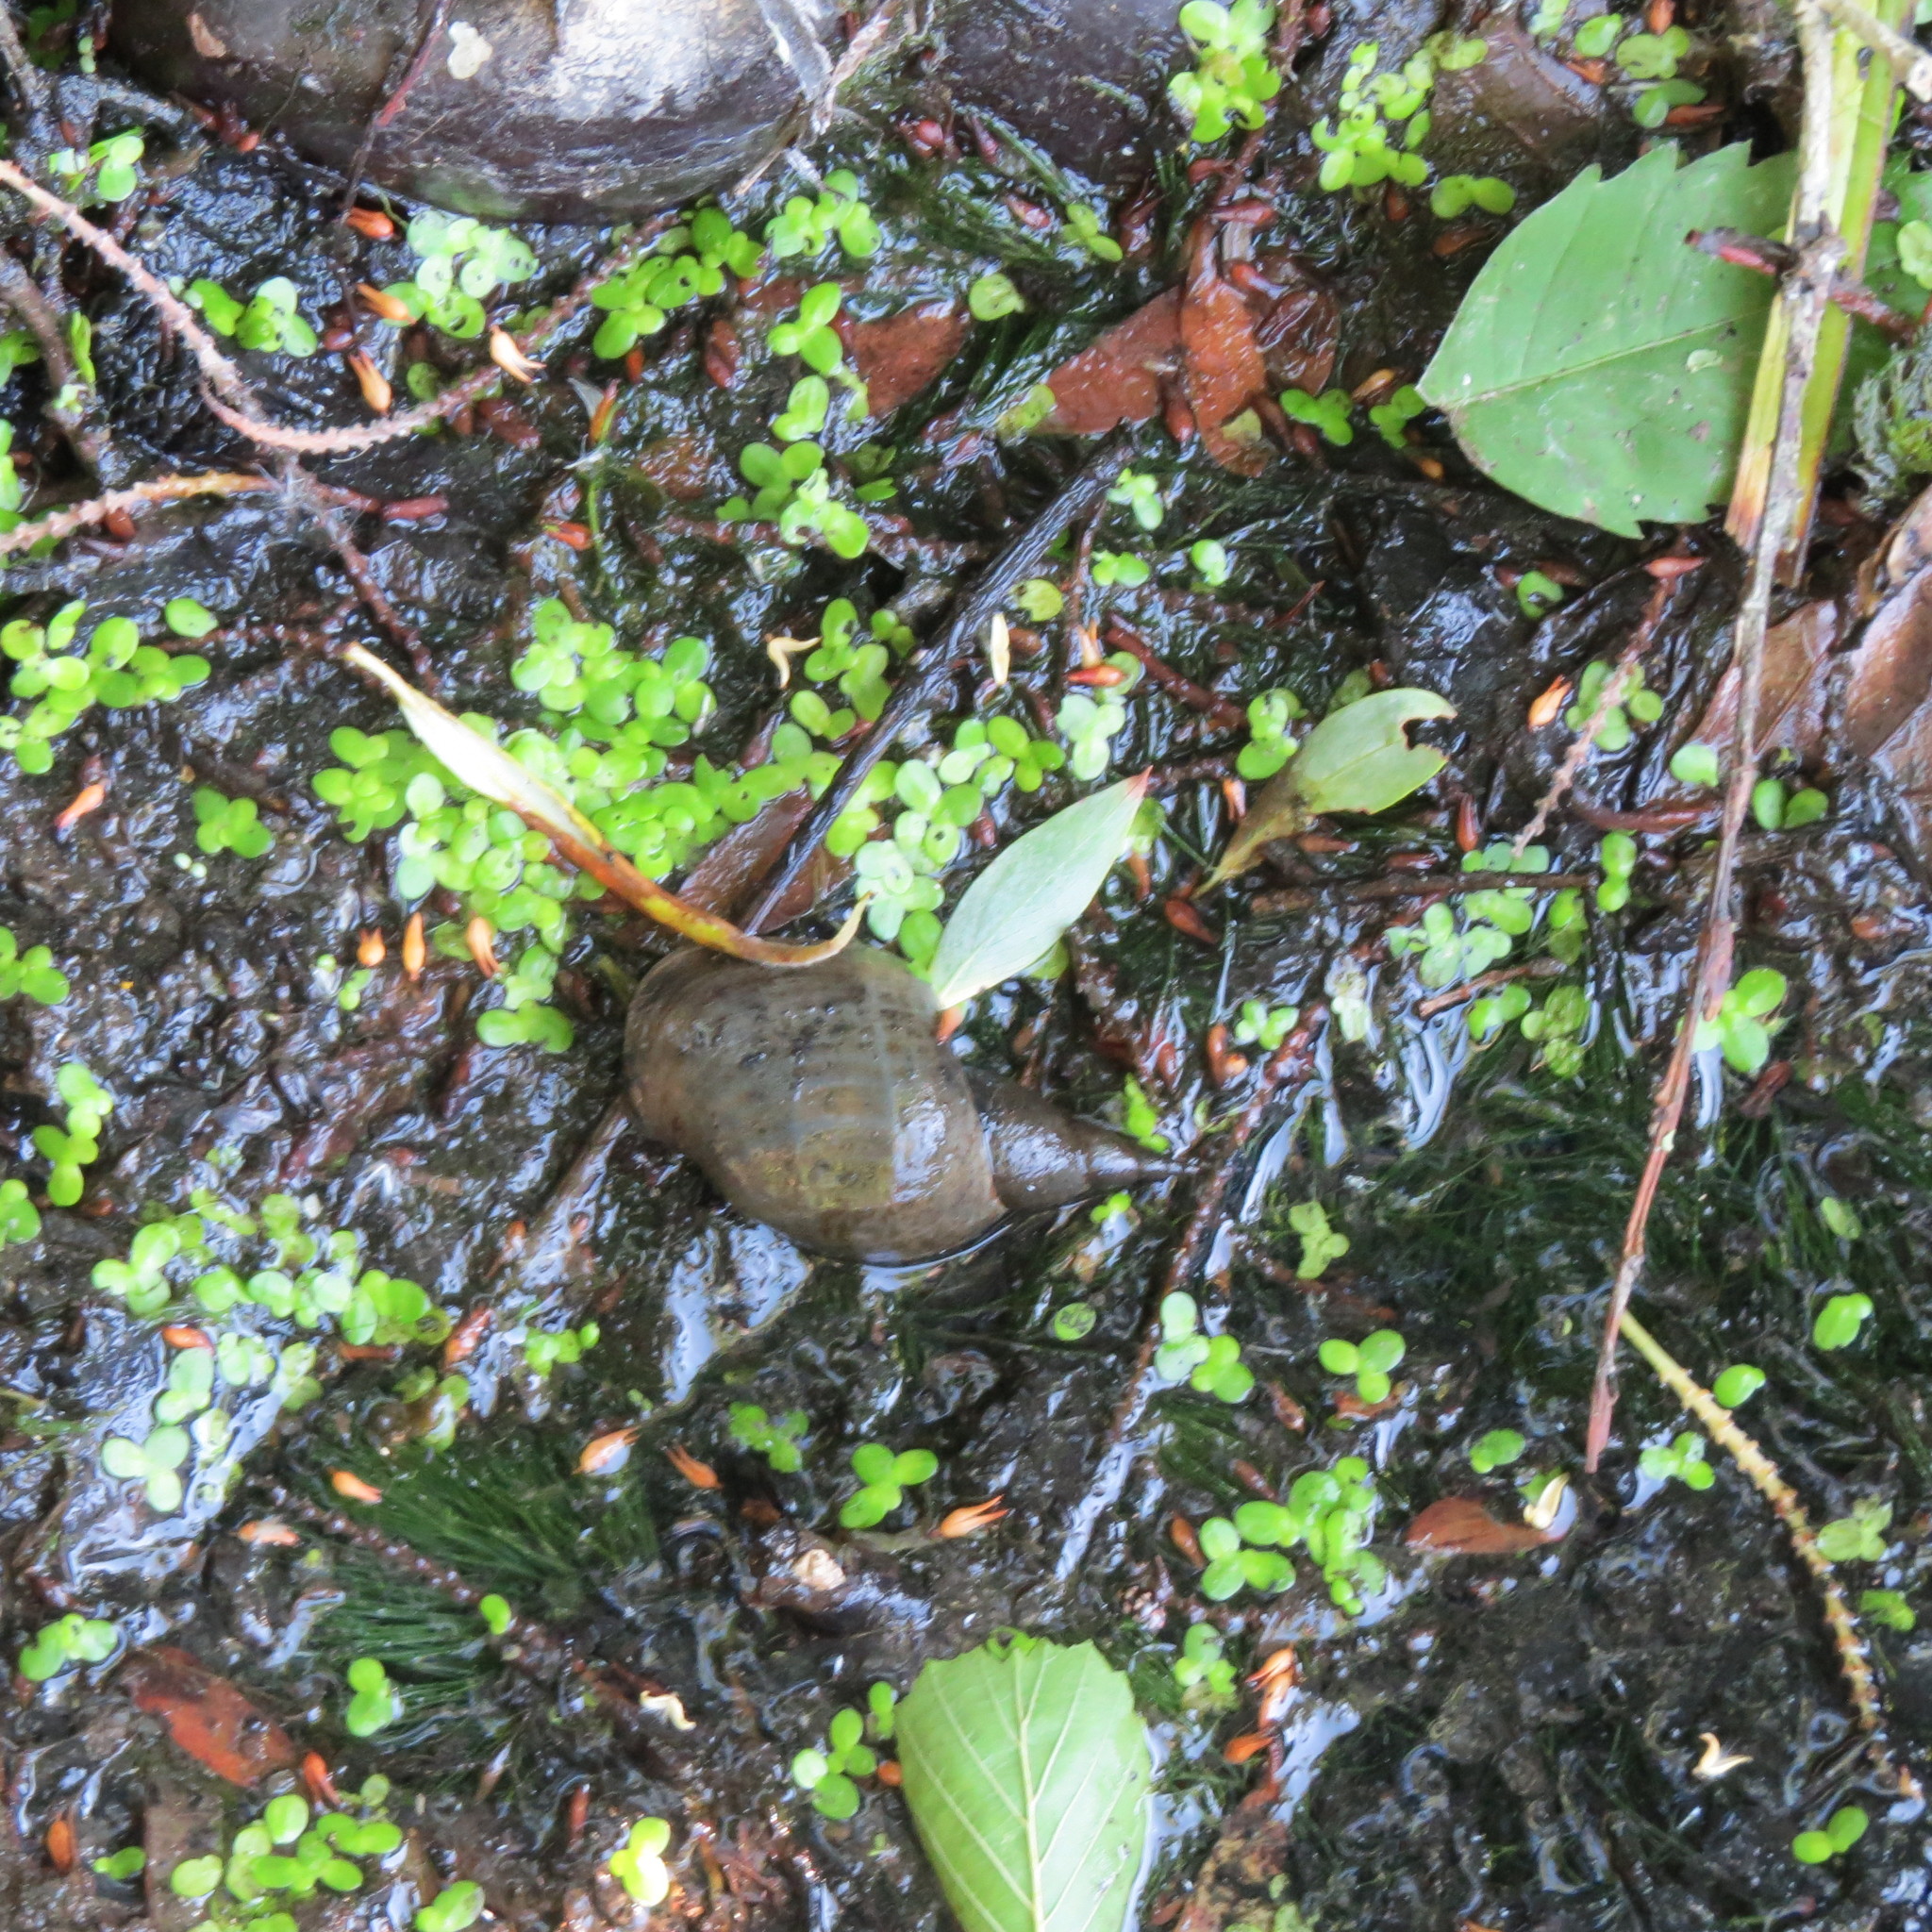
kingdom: Animalia
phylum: Mollusca
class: Gastropoda
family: Lymnaeidae
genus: Lymnaea
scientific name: Lymnaea stagnalis
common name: Great pond snail
